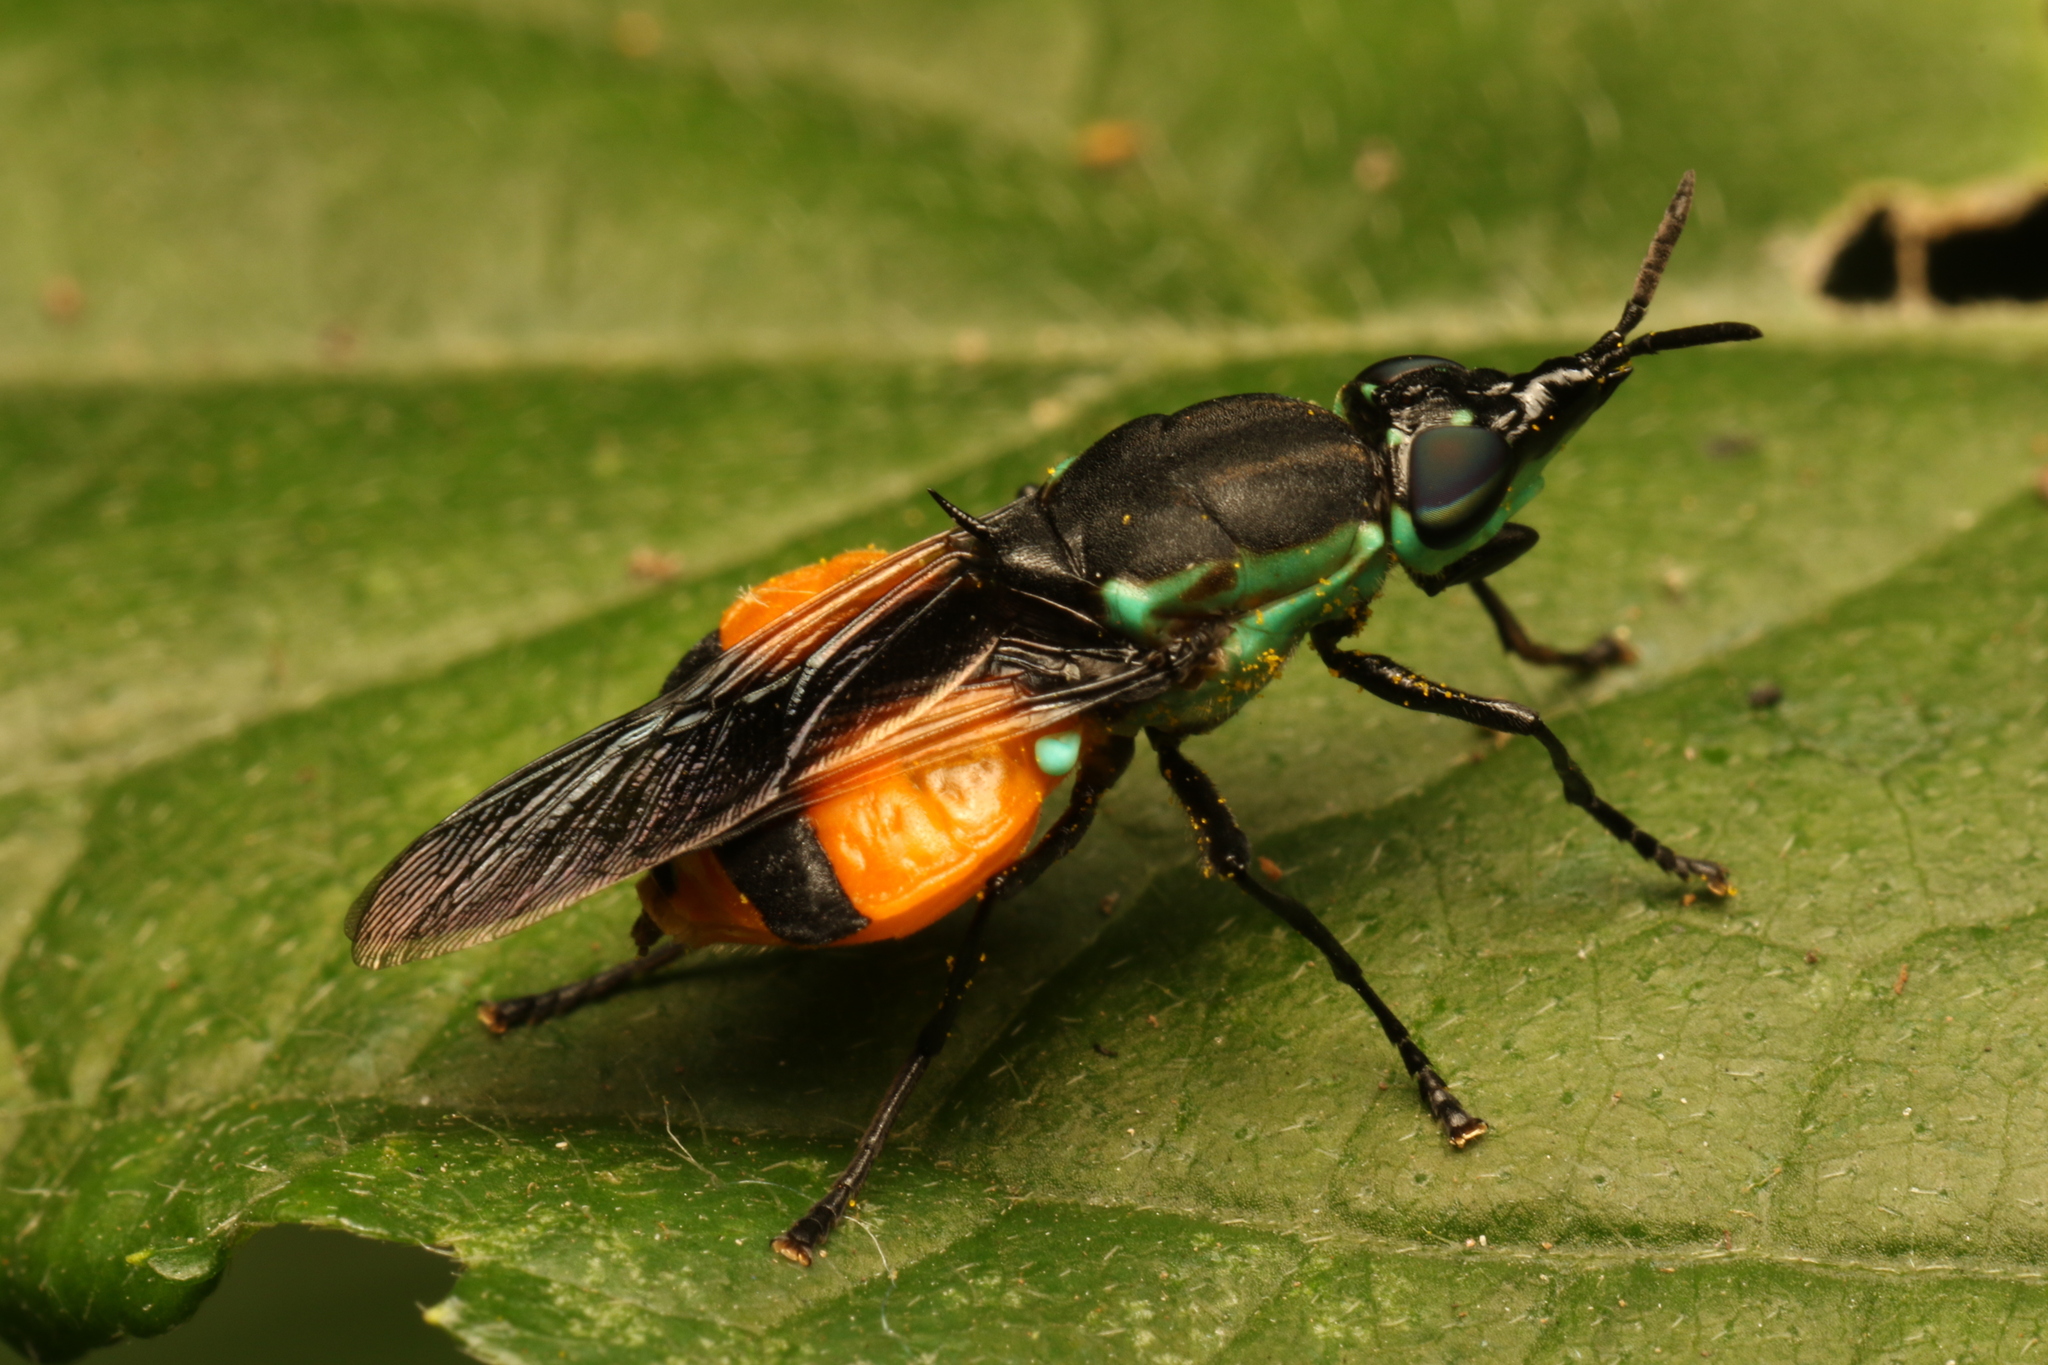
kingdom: Animalia
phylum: Arthropoda
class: Insecta
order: Diptera
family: Stratiomyidae
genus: Rhingiopsis
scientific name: Rhingiopsis tau
